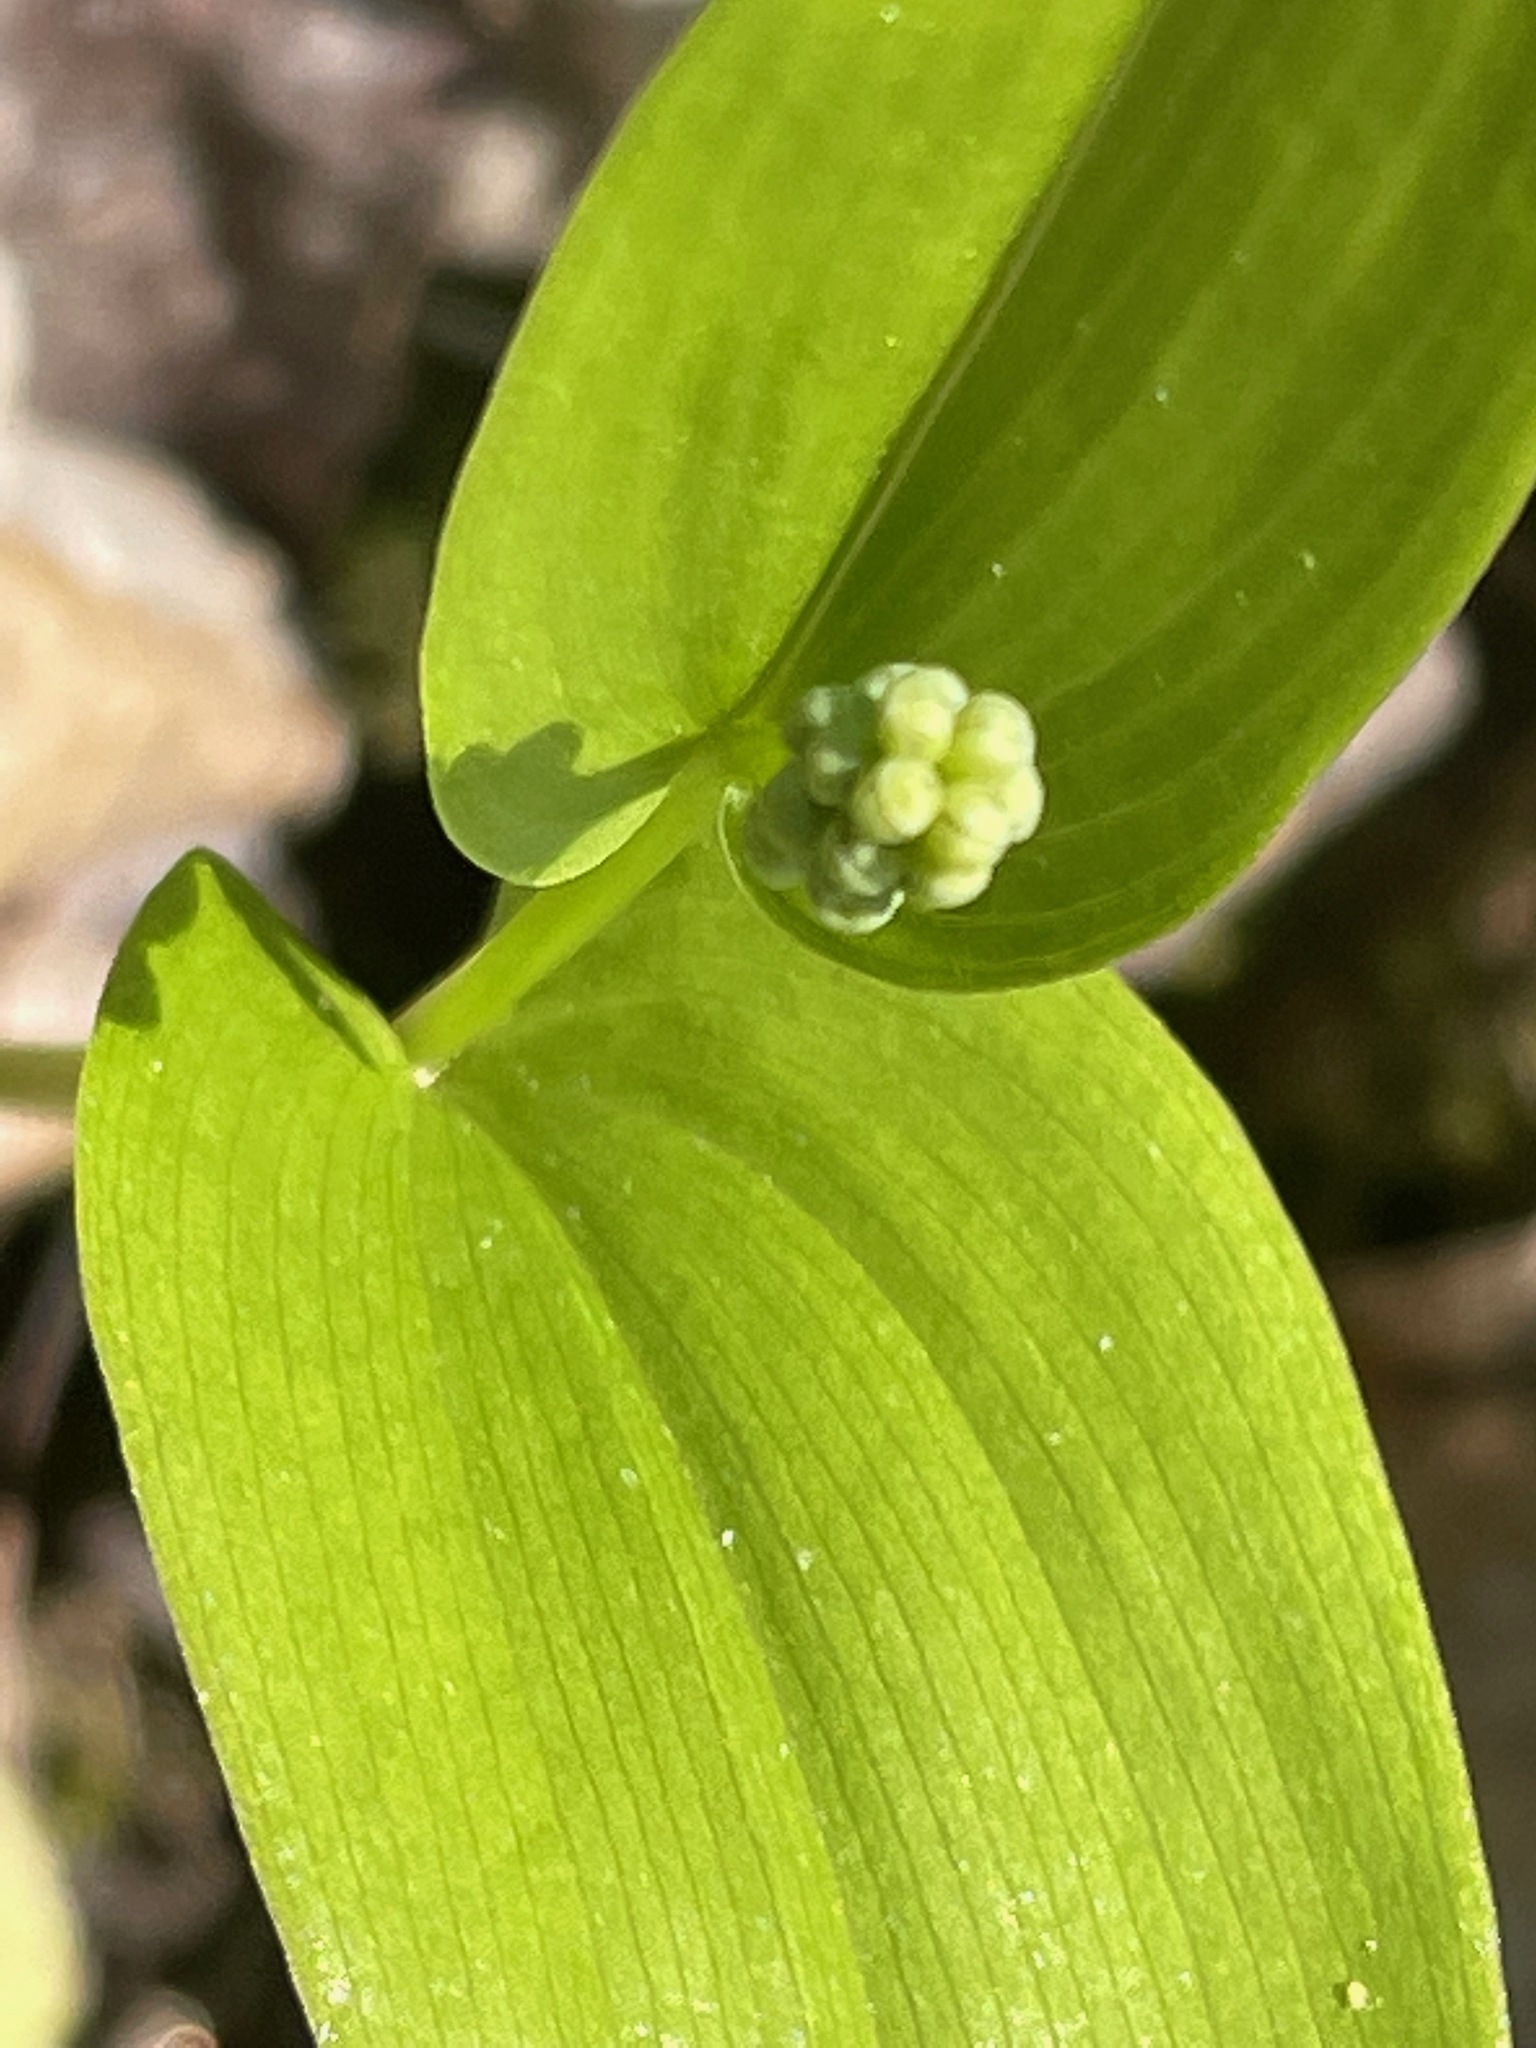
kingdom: Plantae
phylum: Tracheophyta
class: Liliopsida
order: Asparagales
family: Asparagaceae
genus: Maianthemum
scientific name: Maianthemum canadense
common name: False lily-of-the-valley
